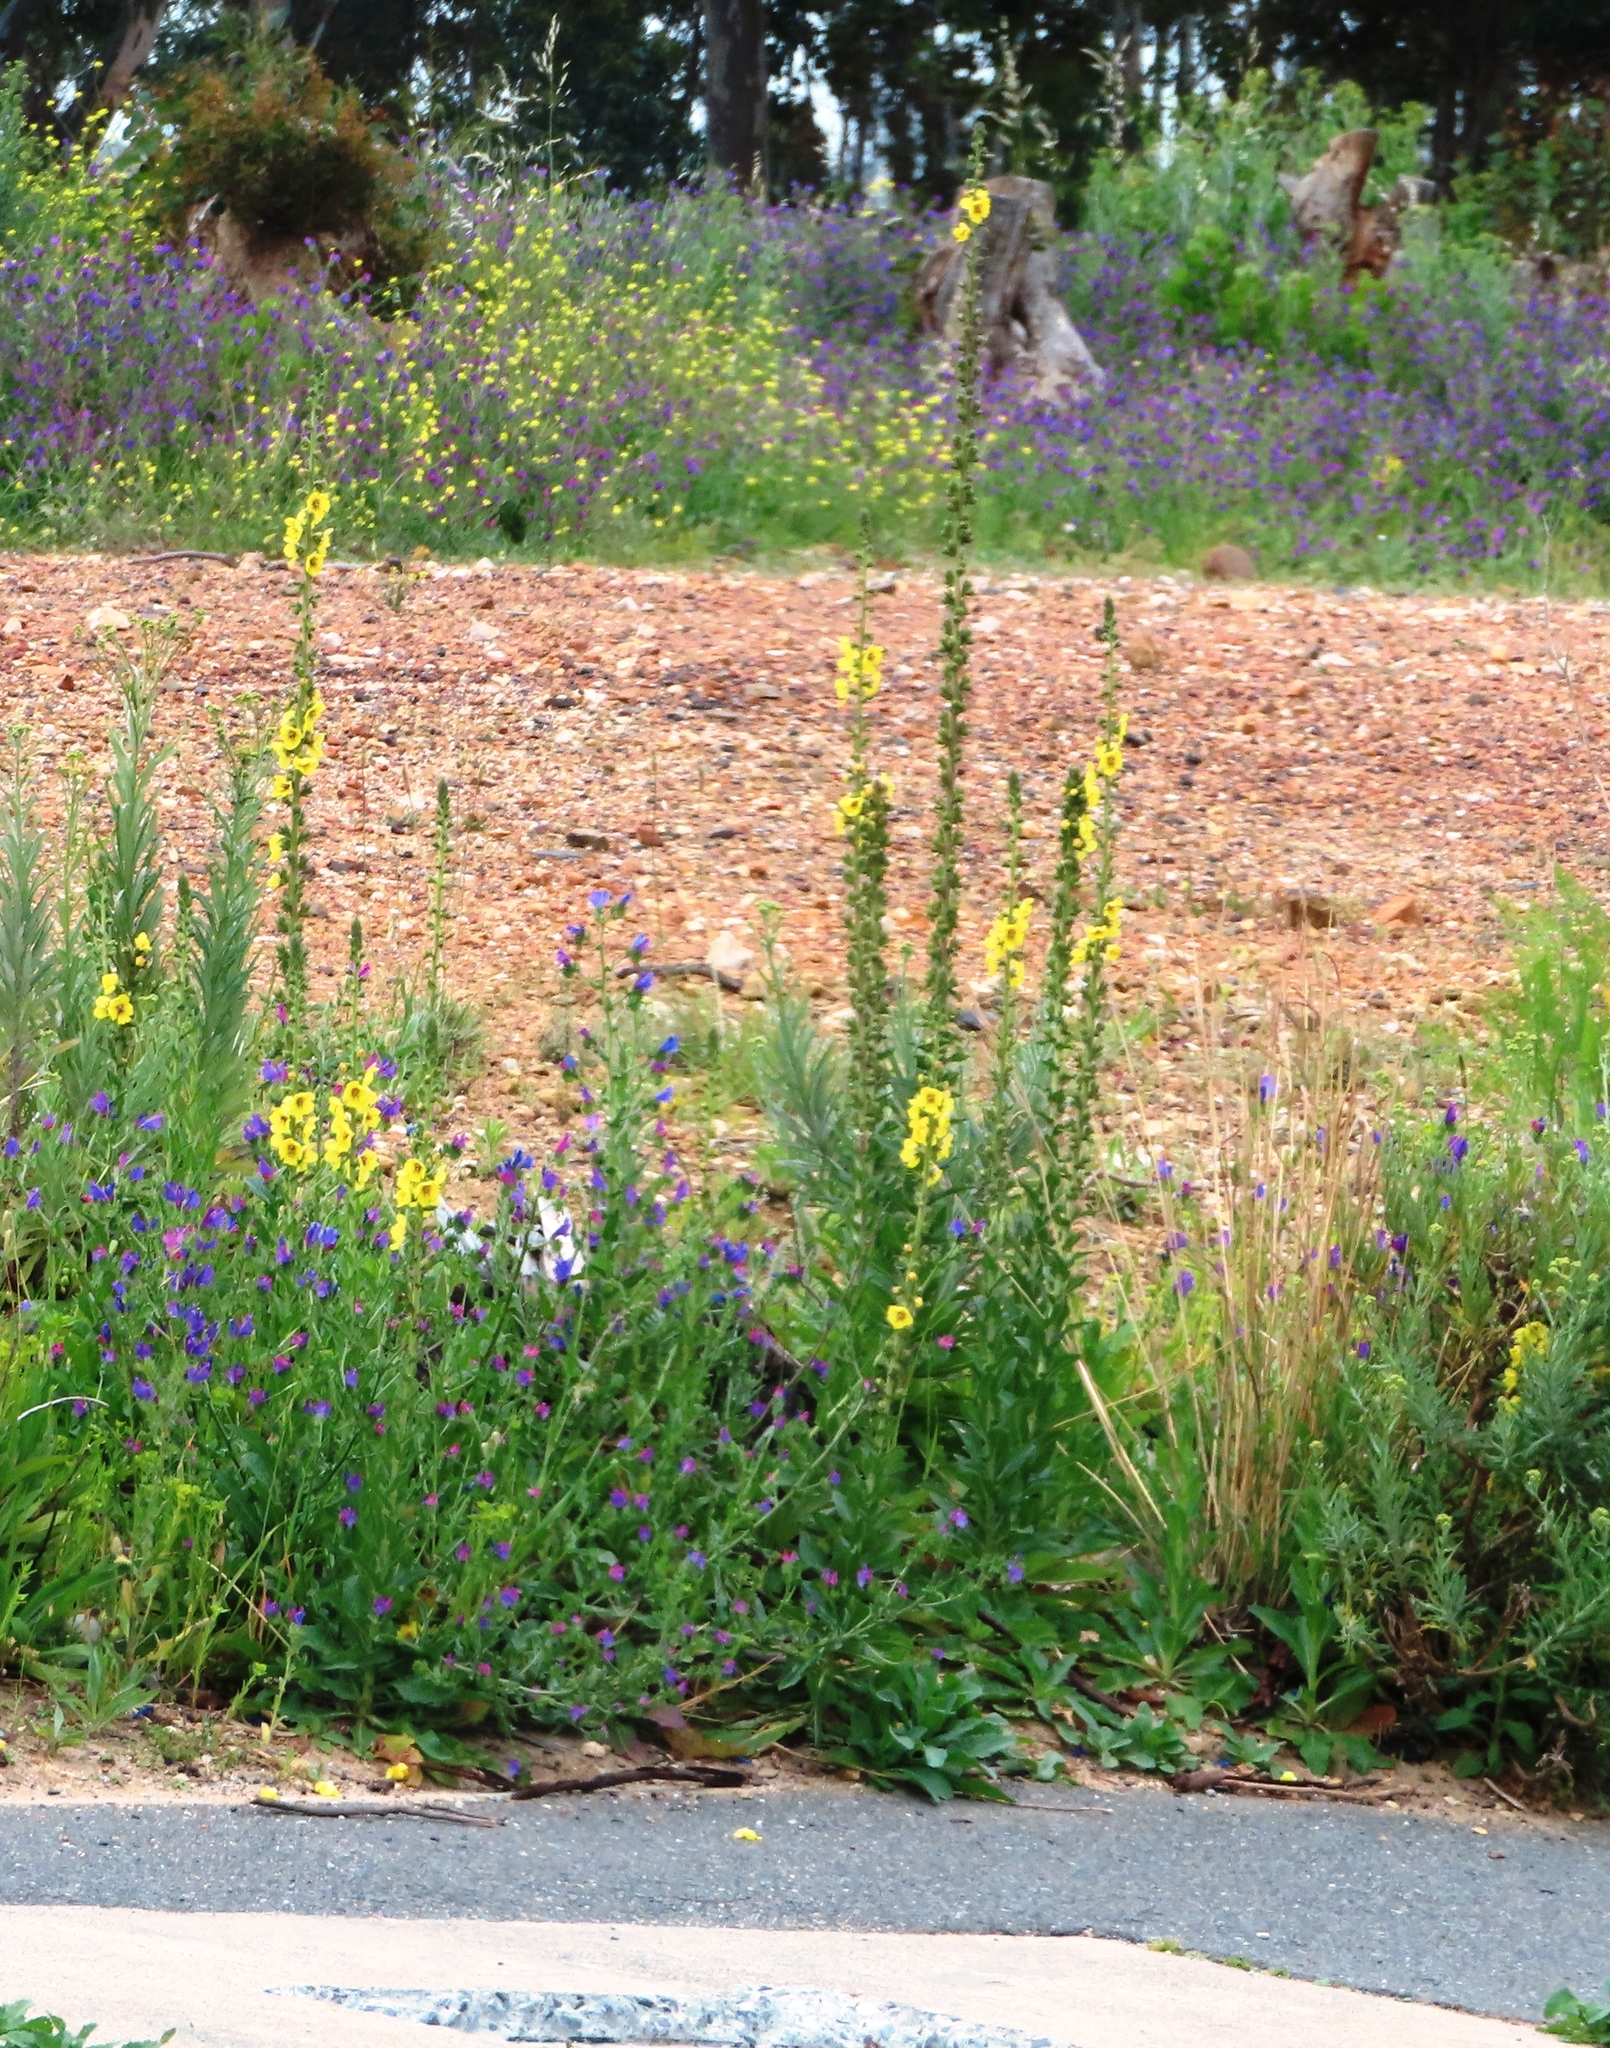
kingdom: Plantae
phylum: Tracheophyta
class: Magnoliopsida
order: Lamiales
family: Scrophulariaceae
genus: Verbascum
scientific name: Verbascum virgatum
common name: Twiggy mullein
